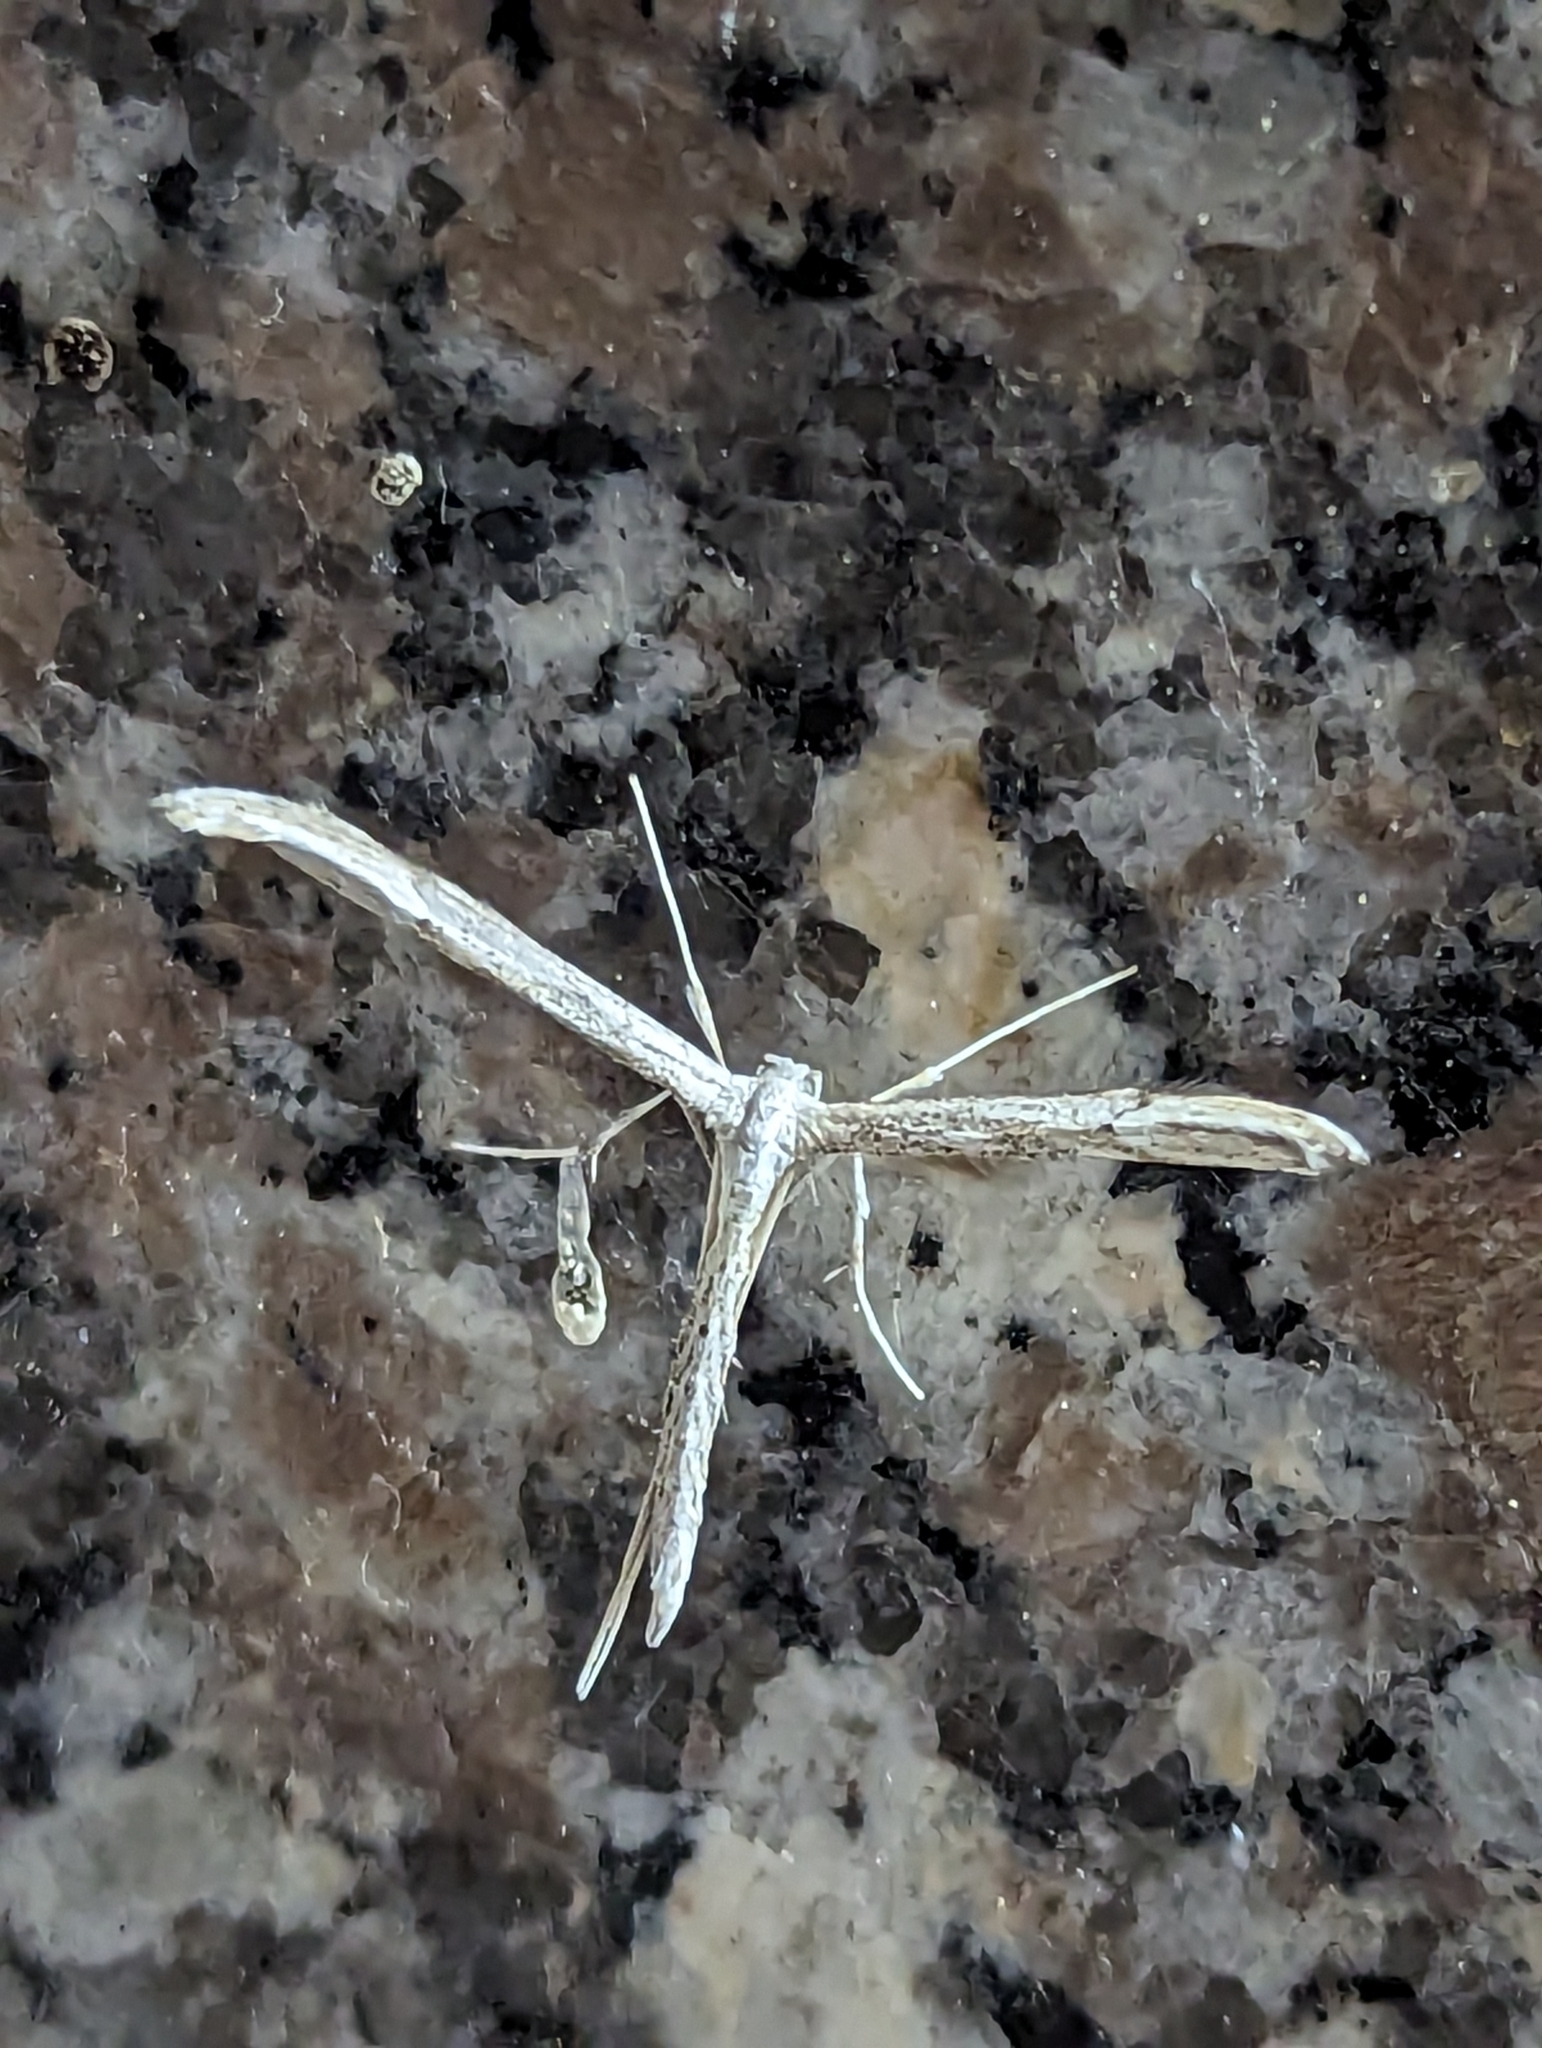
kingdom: Animalia
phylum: Arthropoda
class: Insecta
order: Lepidoptera
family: Pterophoridae
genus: Oidaematophorus
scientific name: Oidaematophorus mathewianus
